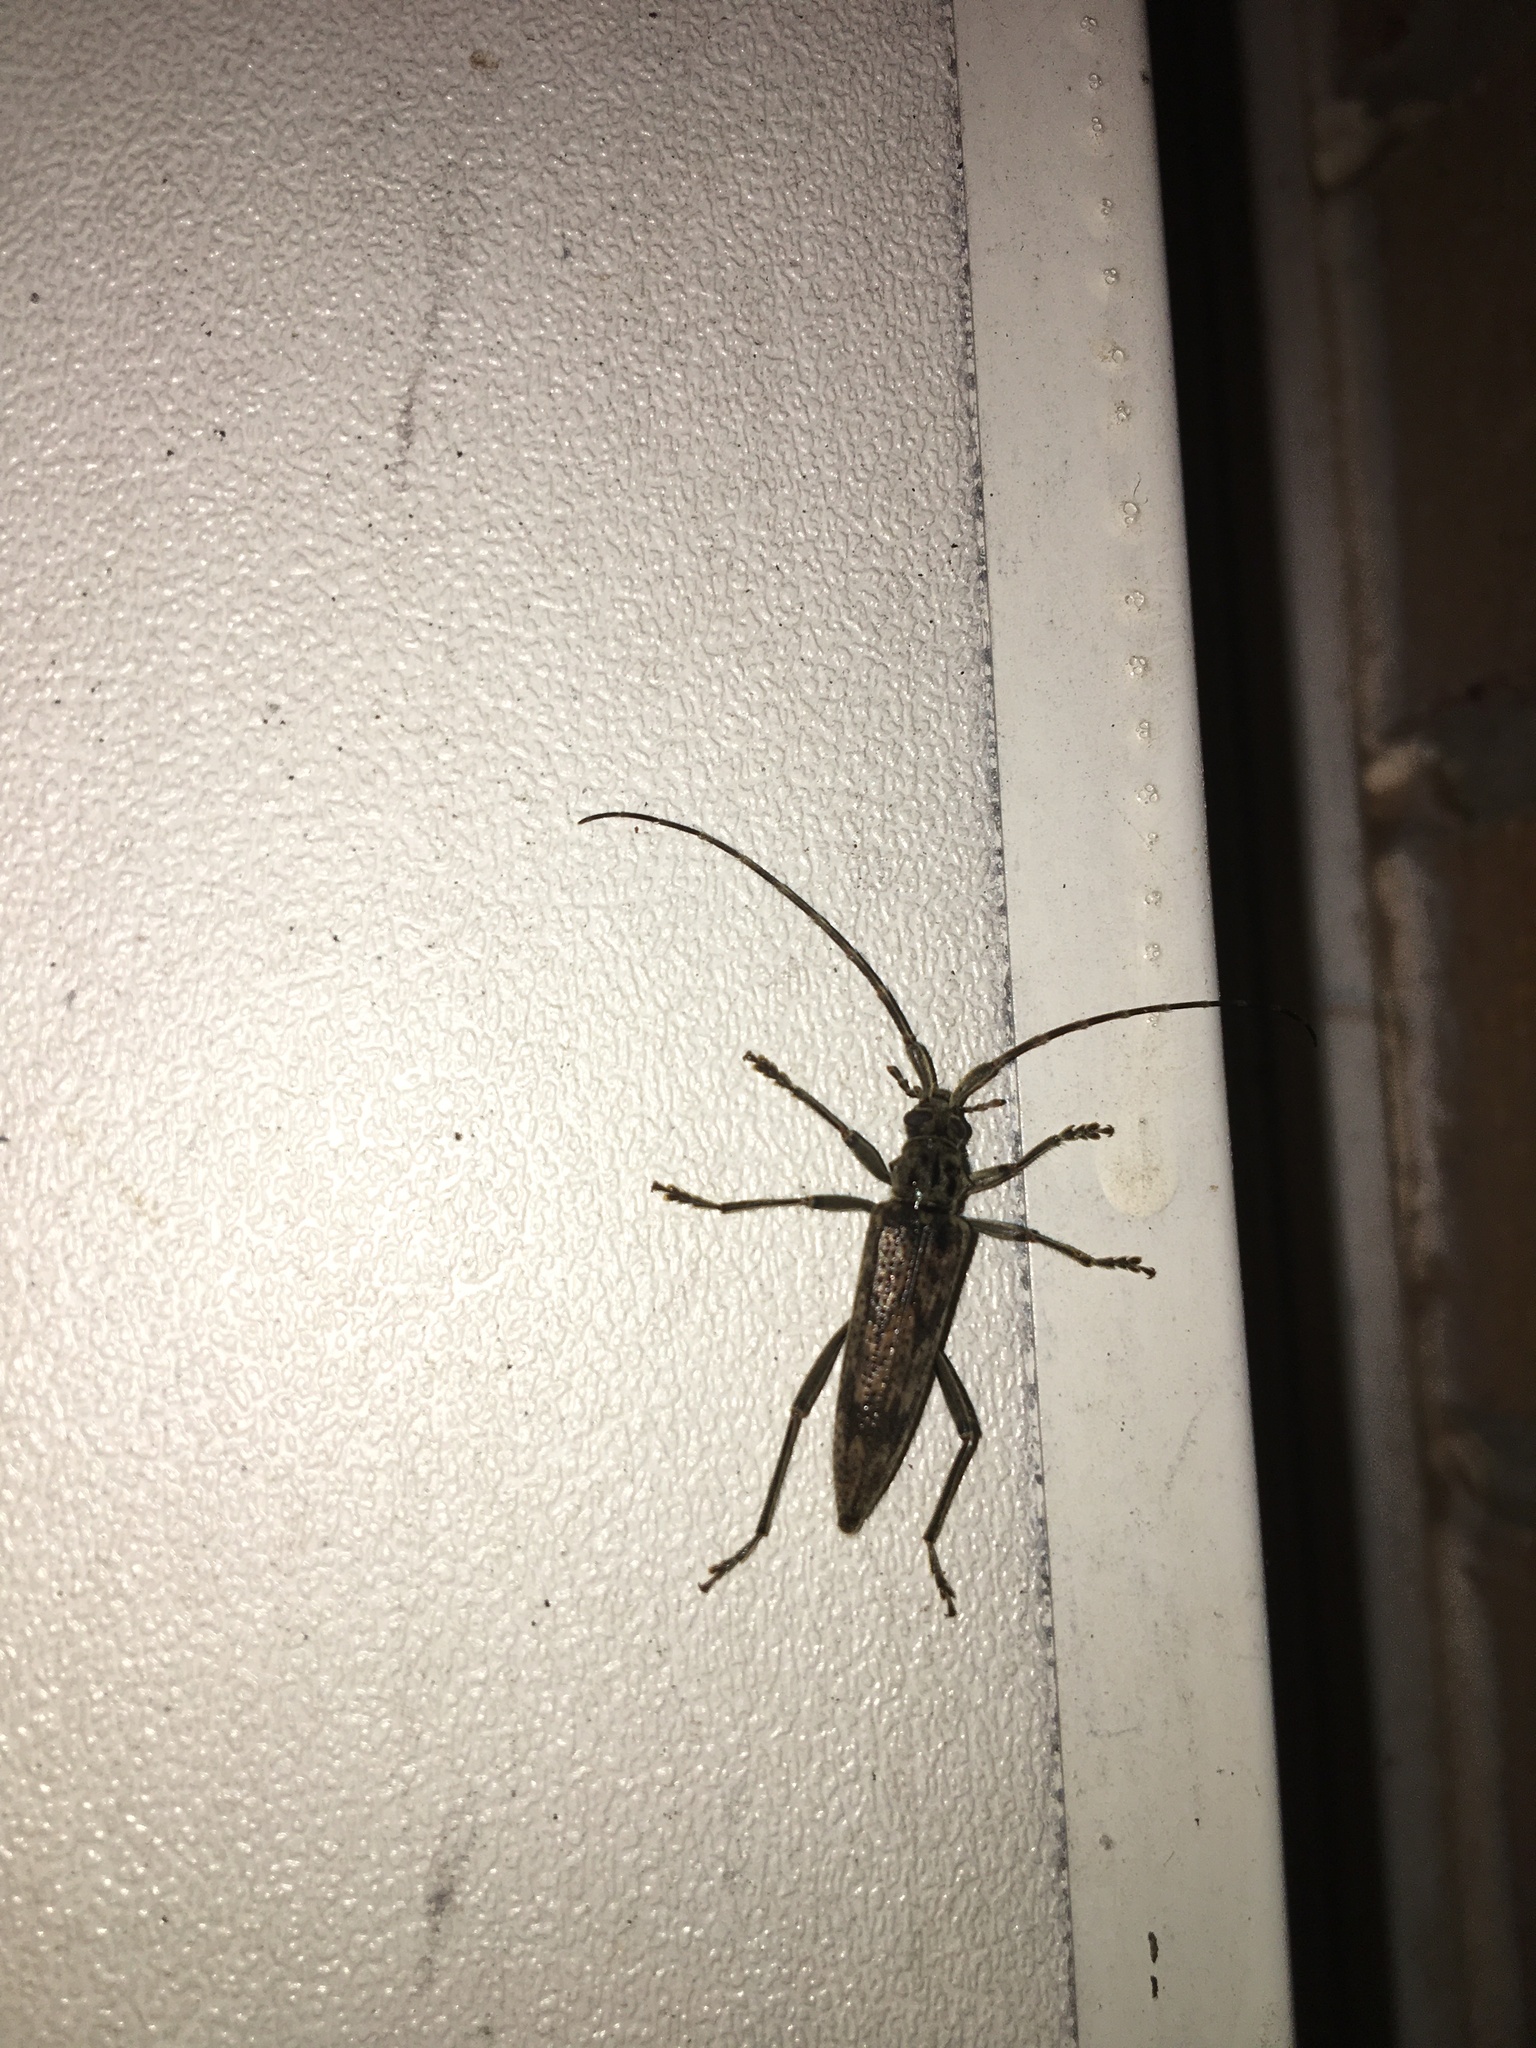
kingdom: Animalia
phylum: Arthropoda
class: Insecta
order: Coleoptera
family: Cerambycidae
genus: Elytrimitatrix
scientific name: Elytrimitatrix undata
